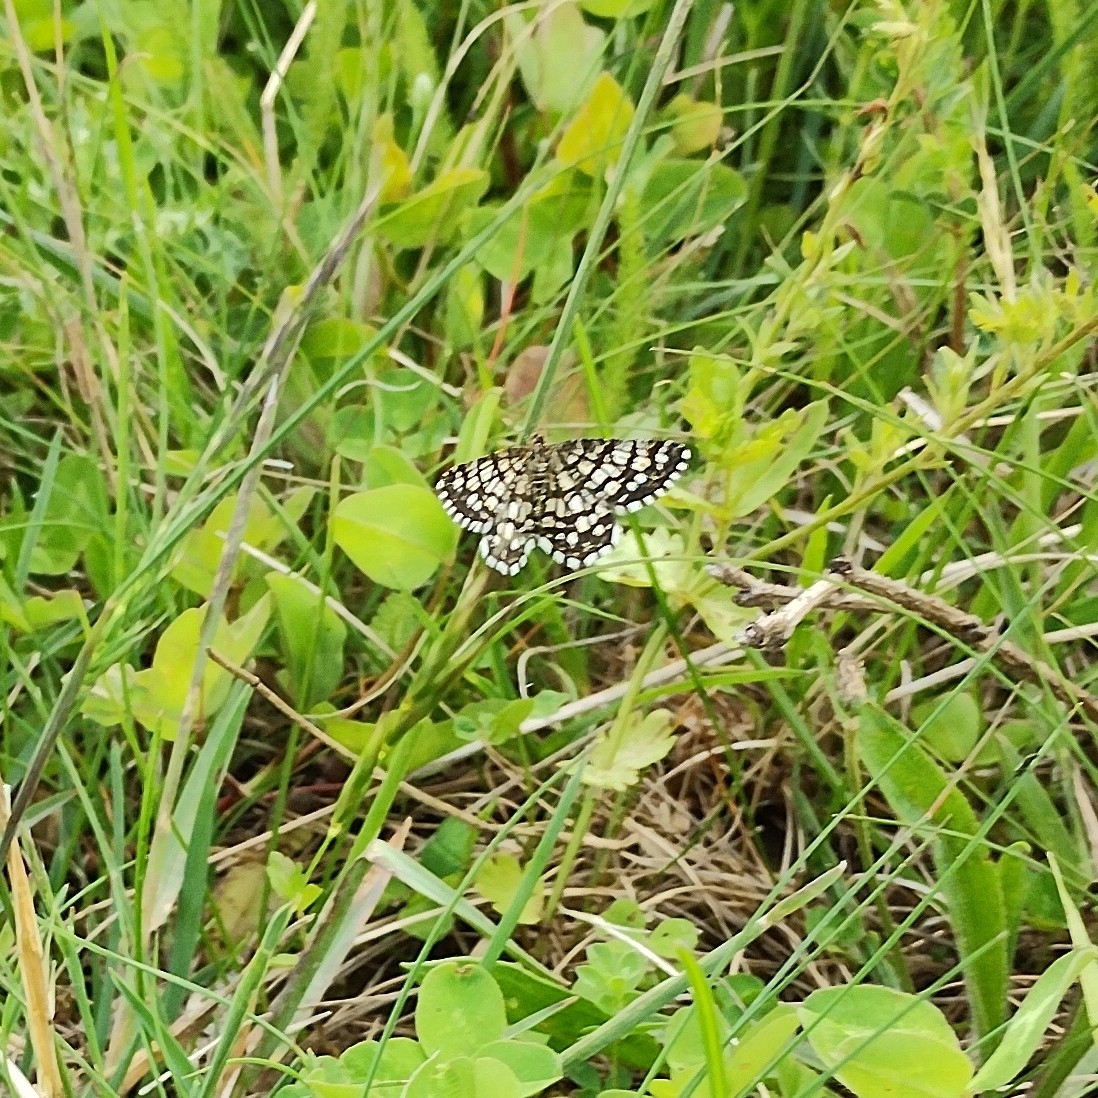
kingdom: Animalia
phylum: Arthropoda
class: Insecta
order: Lepidoptera
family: Geometridae
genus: Chiasmia
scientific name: Chiasmia clathrata
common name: Latticed heath
